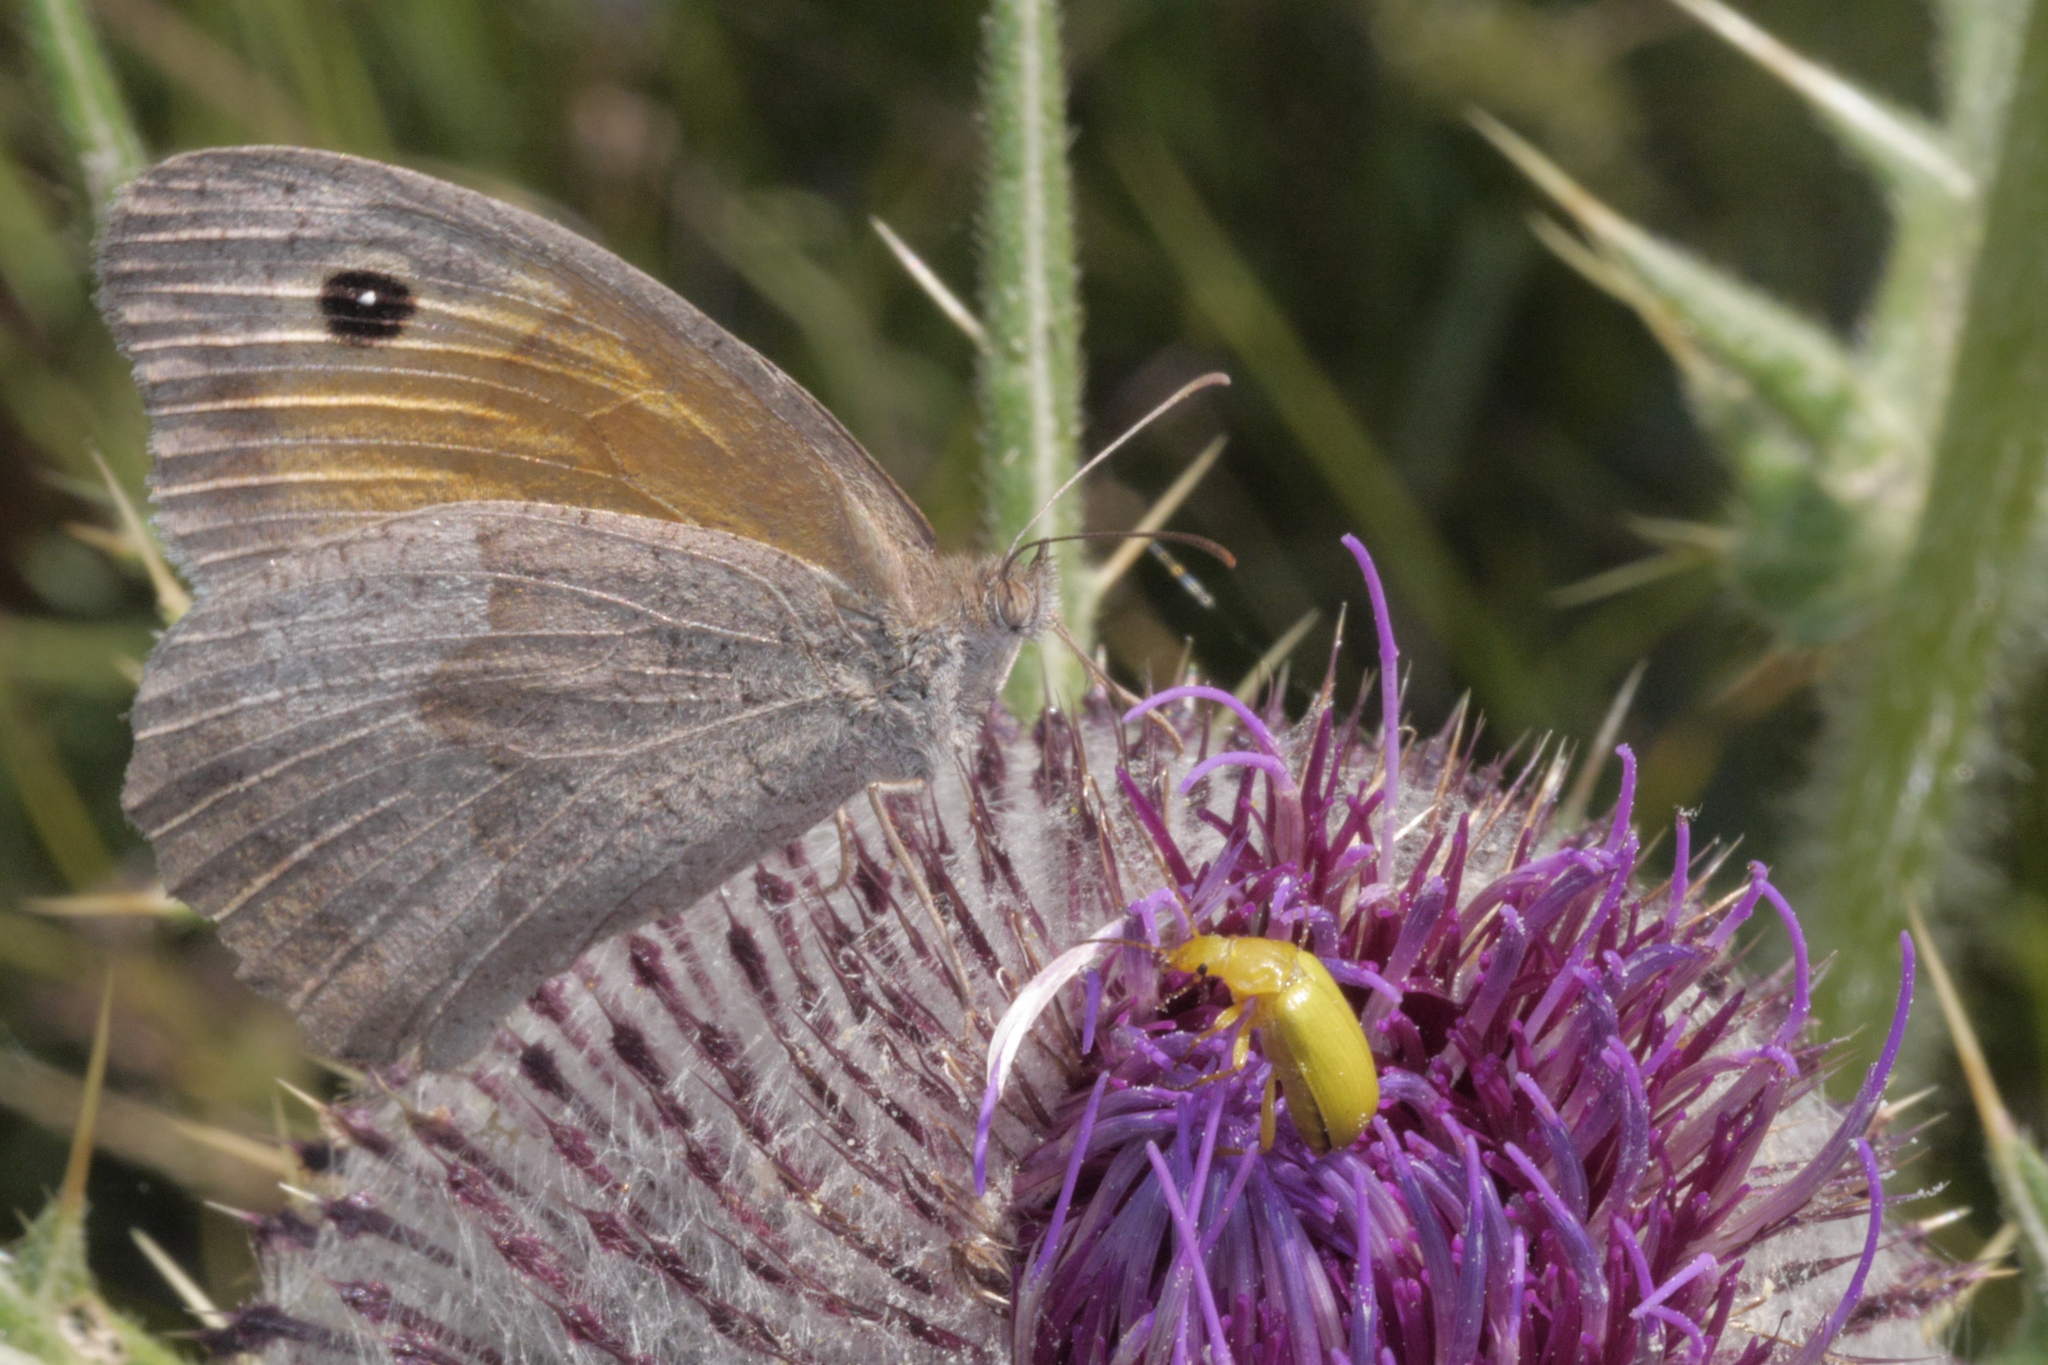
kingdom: Animalia
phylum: Arthropoda
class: Insecta
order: Lepidoptera
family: Nymphalidae
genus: Maniola
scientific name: Maniola jurtina
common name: Meadow brown
